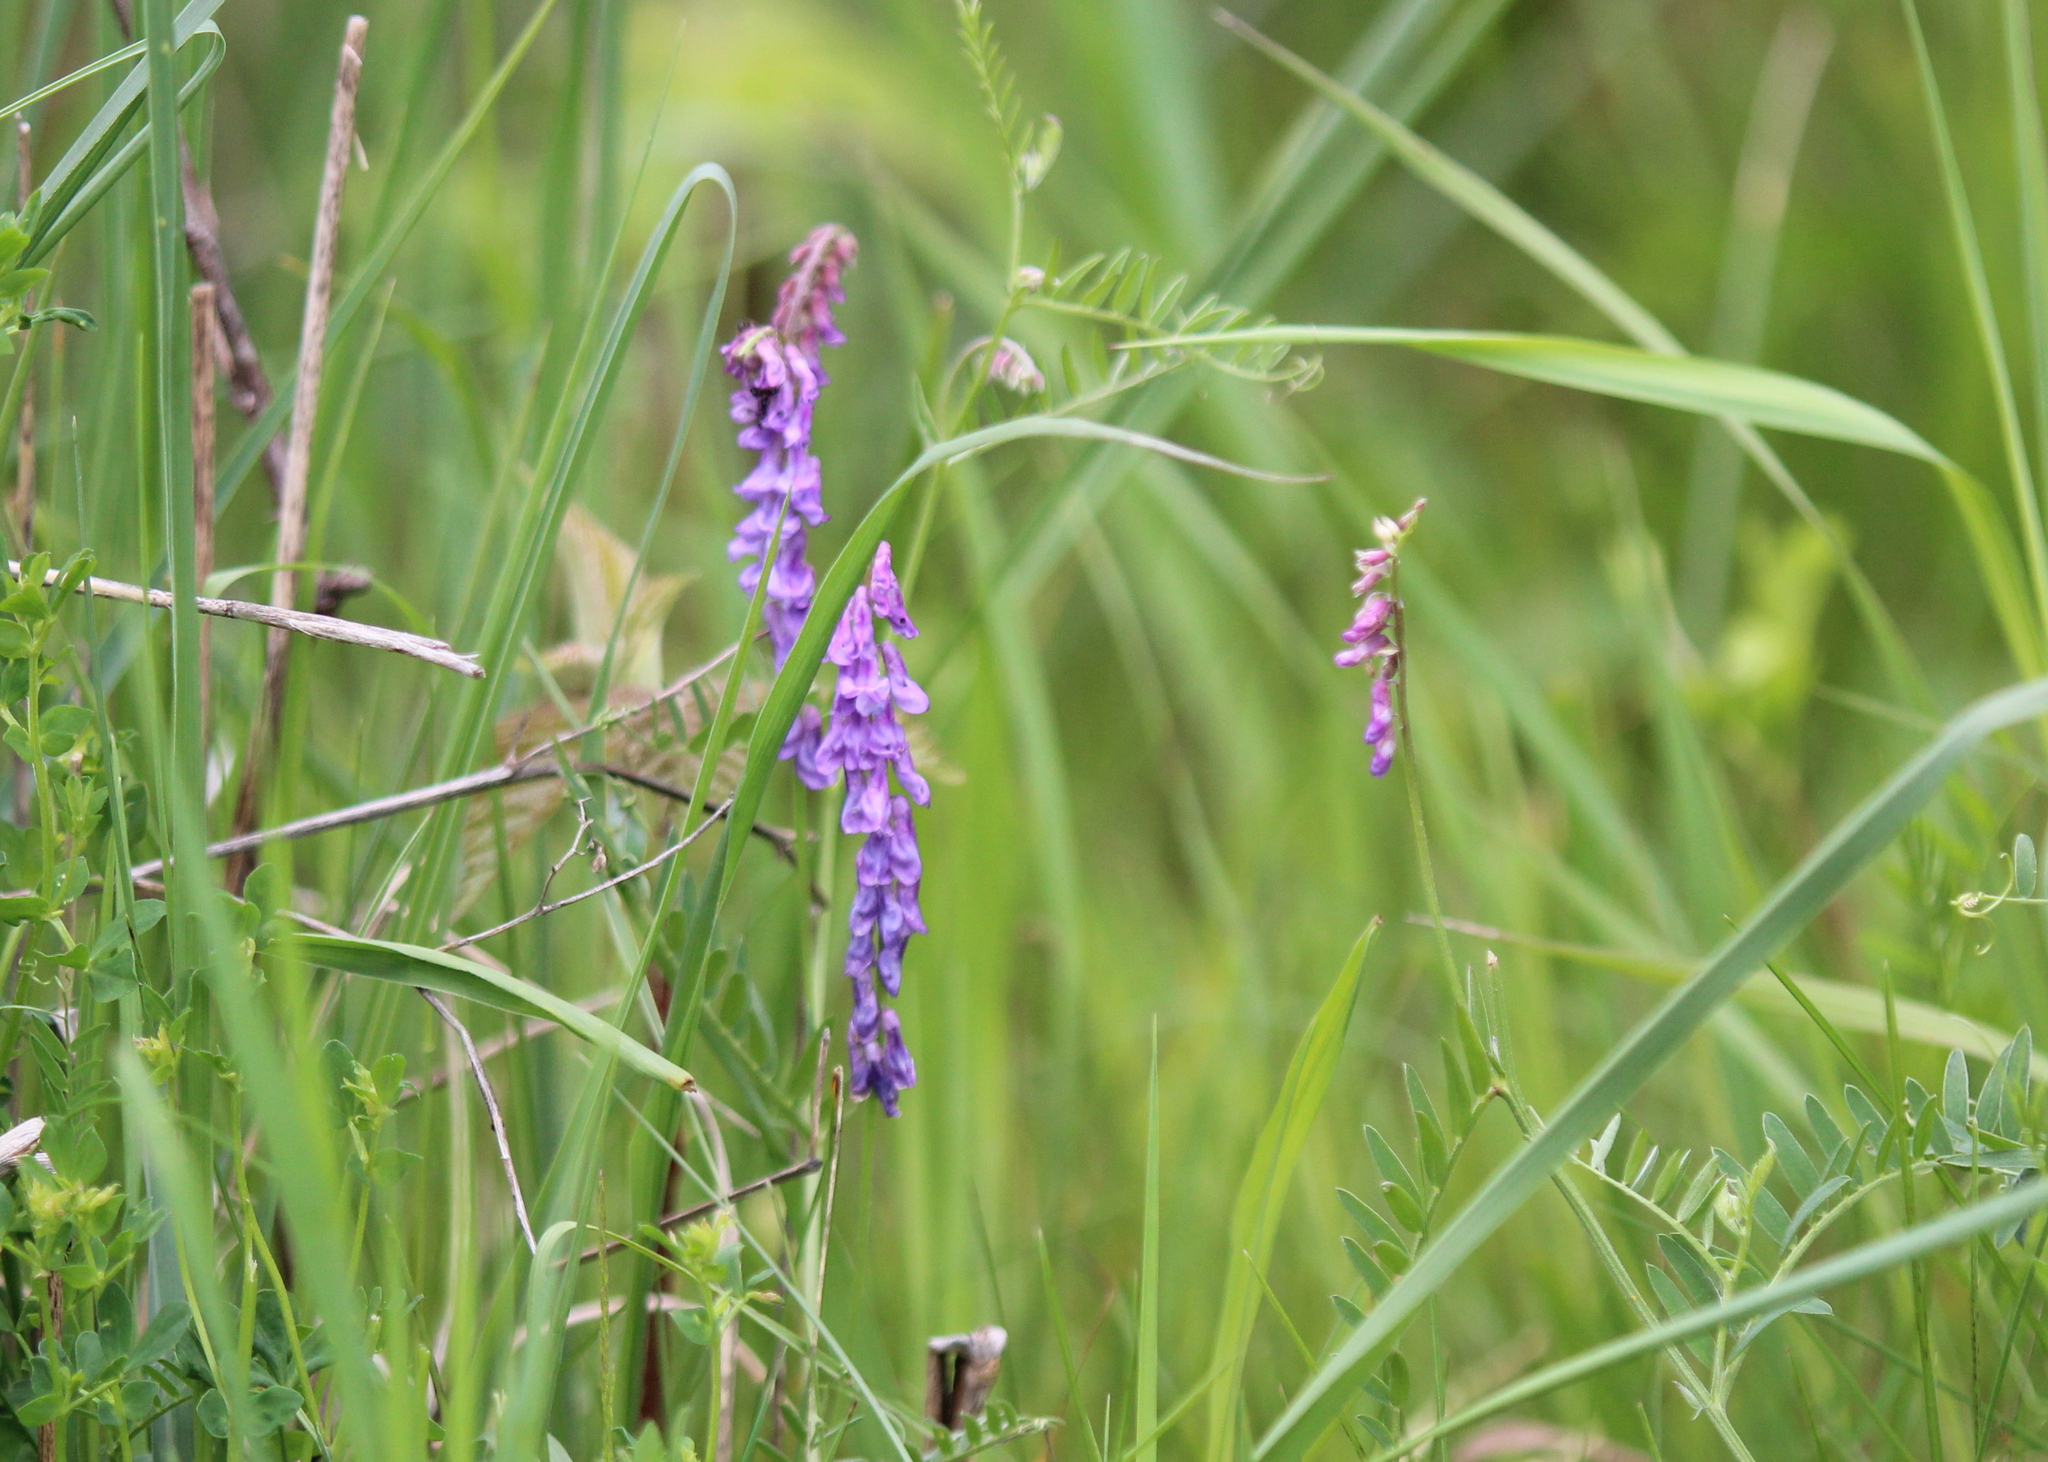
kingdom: Plantae
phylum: Tracheophyta
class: Magnoliopsida
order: Fabales
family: Fabaceae
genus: Vicia
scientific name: Vicia cracca
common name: Bird vetch
